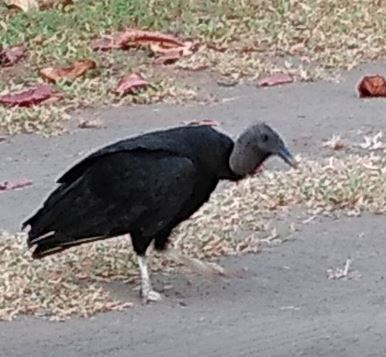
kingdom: Animalia
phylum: Chordata
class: Aves
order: Accipitriformes
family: Cathartidae
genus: Coragyps
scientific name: Coragyps atratus
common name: Black vulture
